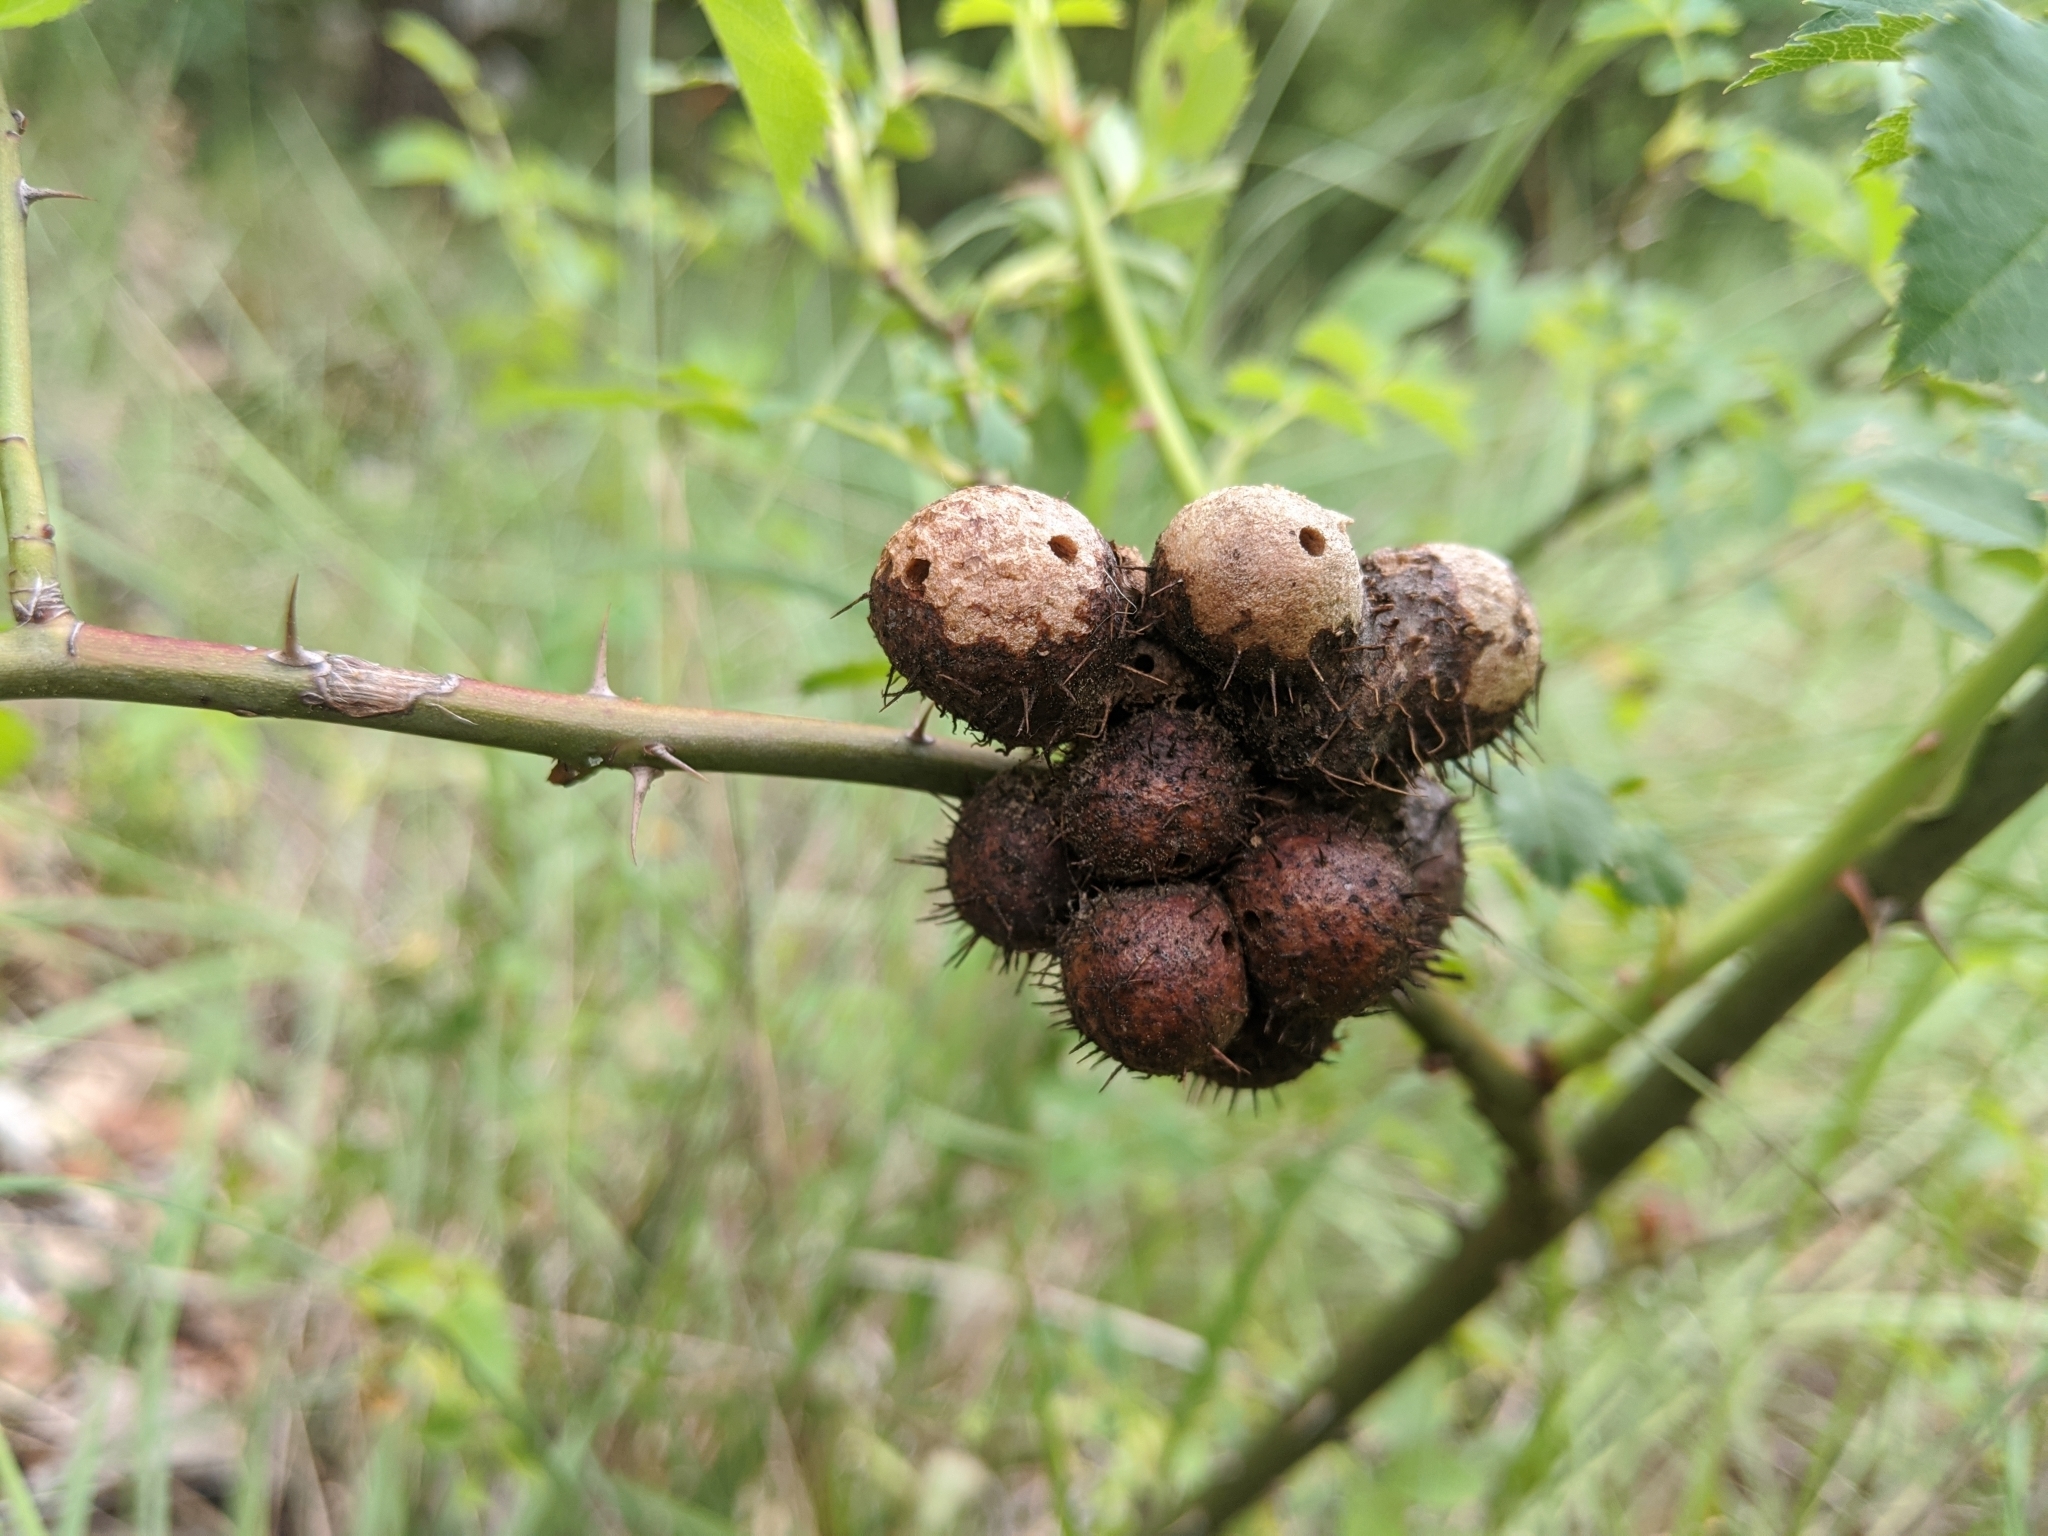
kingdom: Animalia
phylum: Arthropoda
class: Insecta
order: Hymenoptera
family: Cynipidae
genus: Diplolepis
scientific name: Diplolepis mayri
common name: Gall wasp
